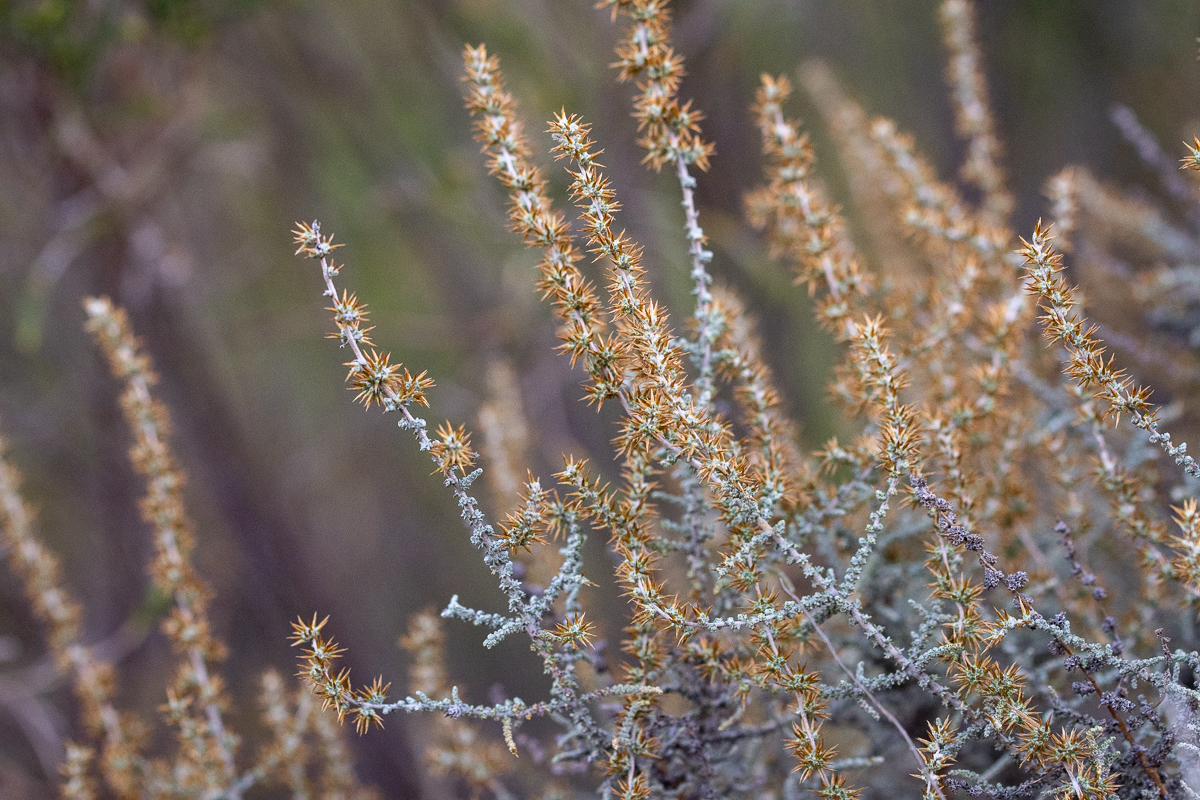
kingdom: Plantae
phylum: Tracheophyta
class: Magnoliopsida
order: Asterales
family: Asteraceae
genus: Seriphium
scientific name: Seriphium plumosum
